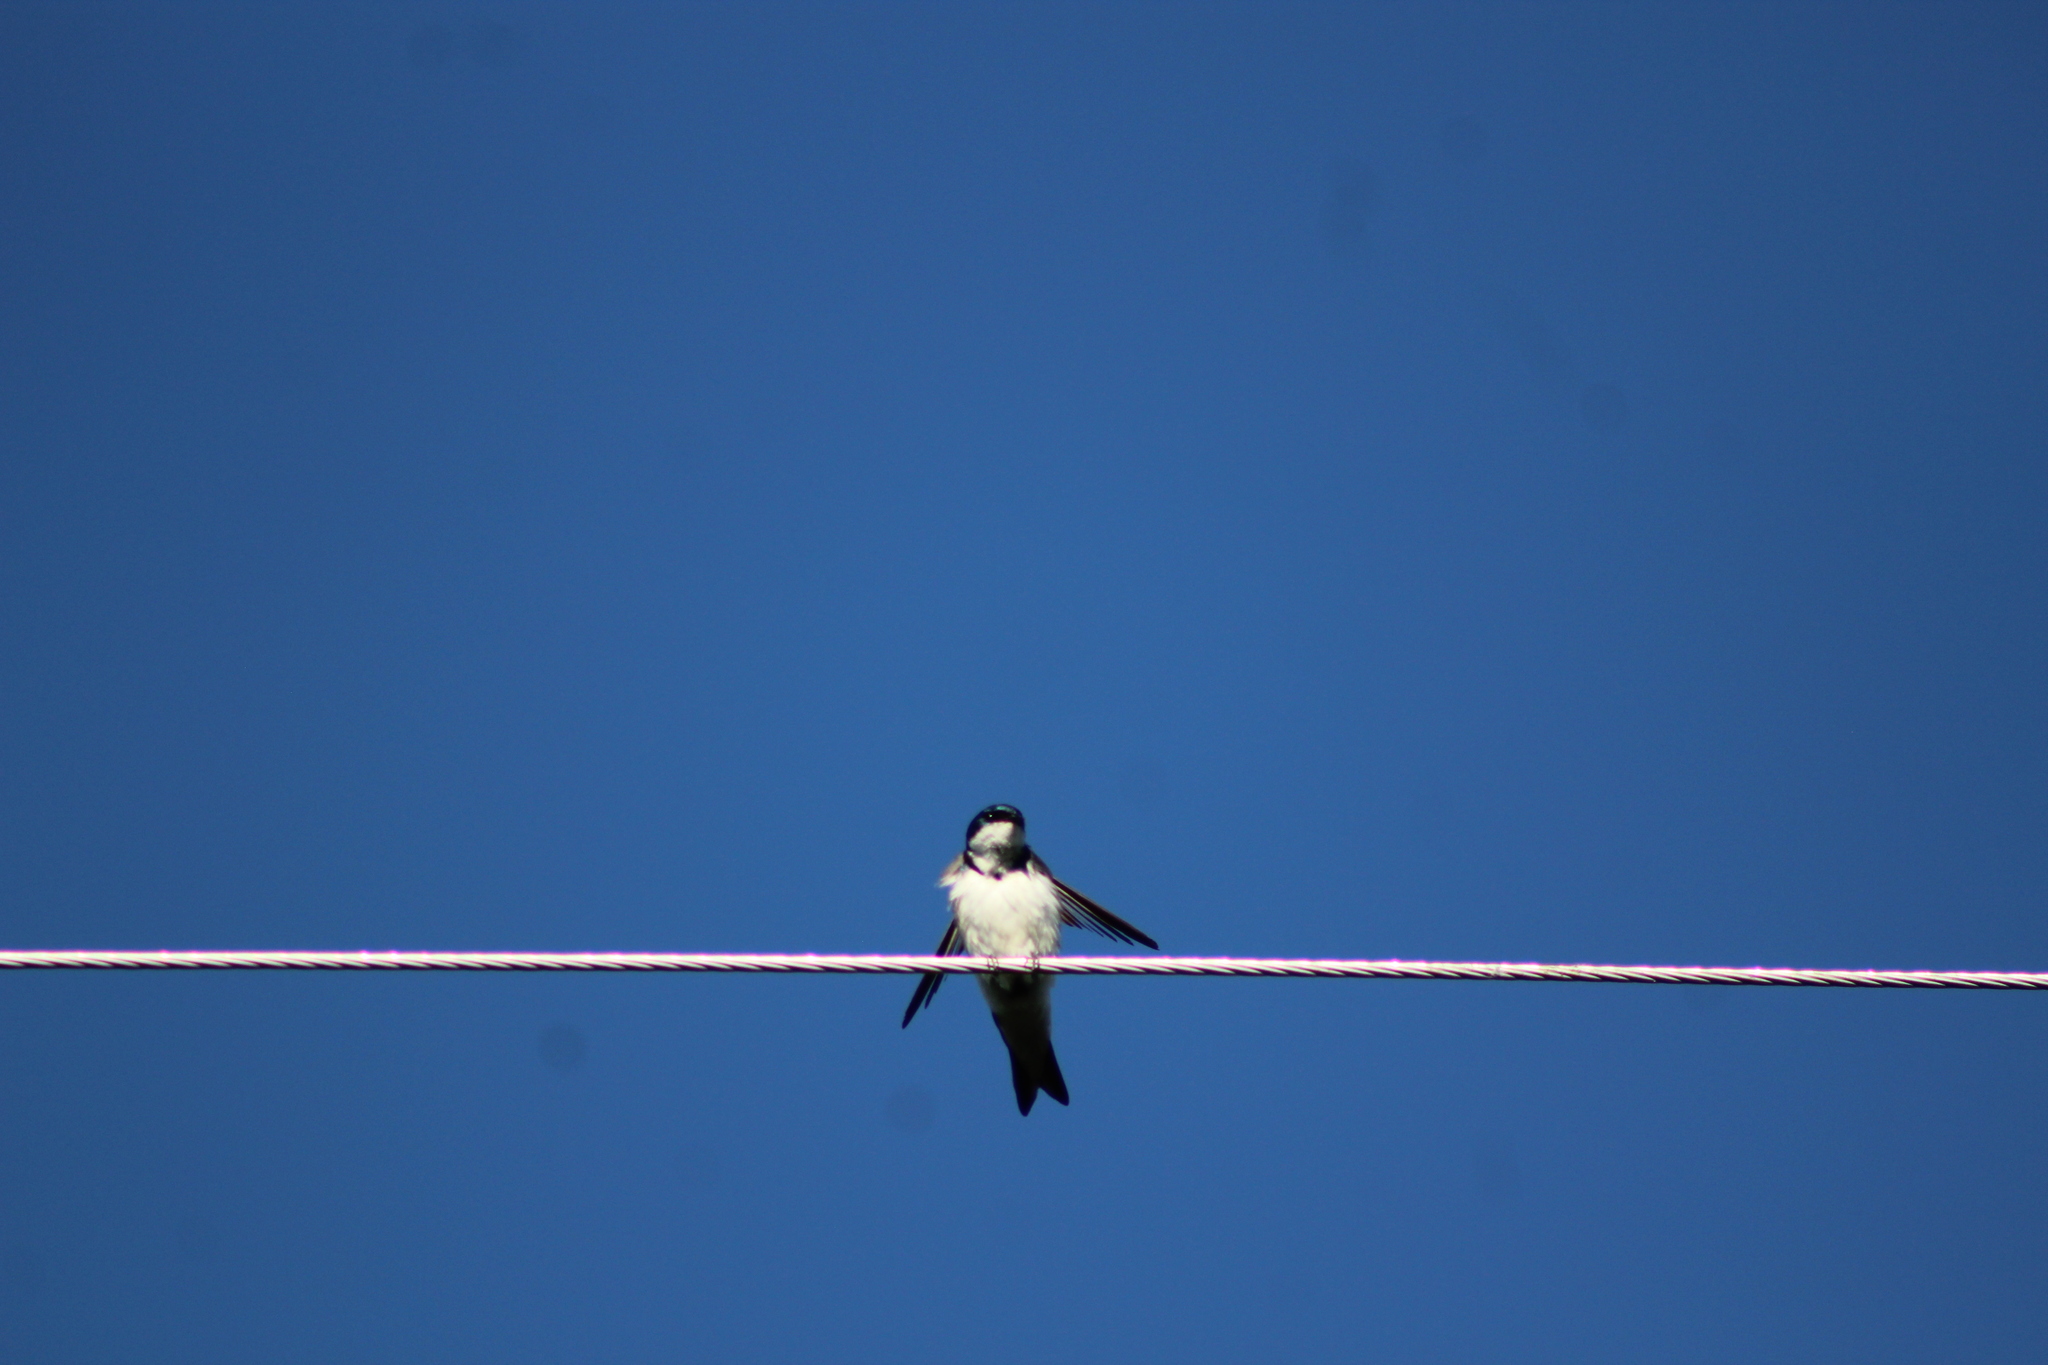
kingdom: Animalia
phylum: Chordata
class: Aves
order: Passeriformes
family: Hirundinidae
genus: Tachycineta
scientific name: Tachycineta bicolor
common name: Tree swallow
